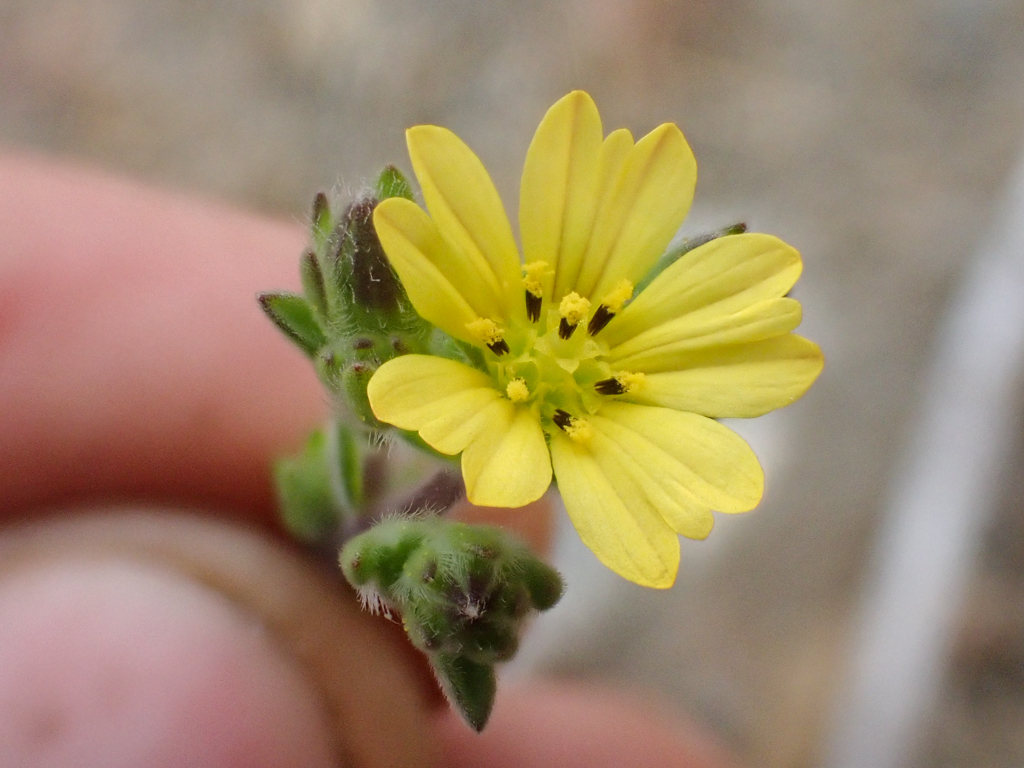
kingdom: Plantae
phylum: Tracheophyta
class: Magnoliopsida
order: Asterales
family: Asteraceae
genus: Lagophylla
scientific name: Lagophylla ramosissima
